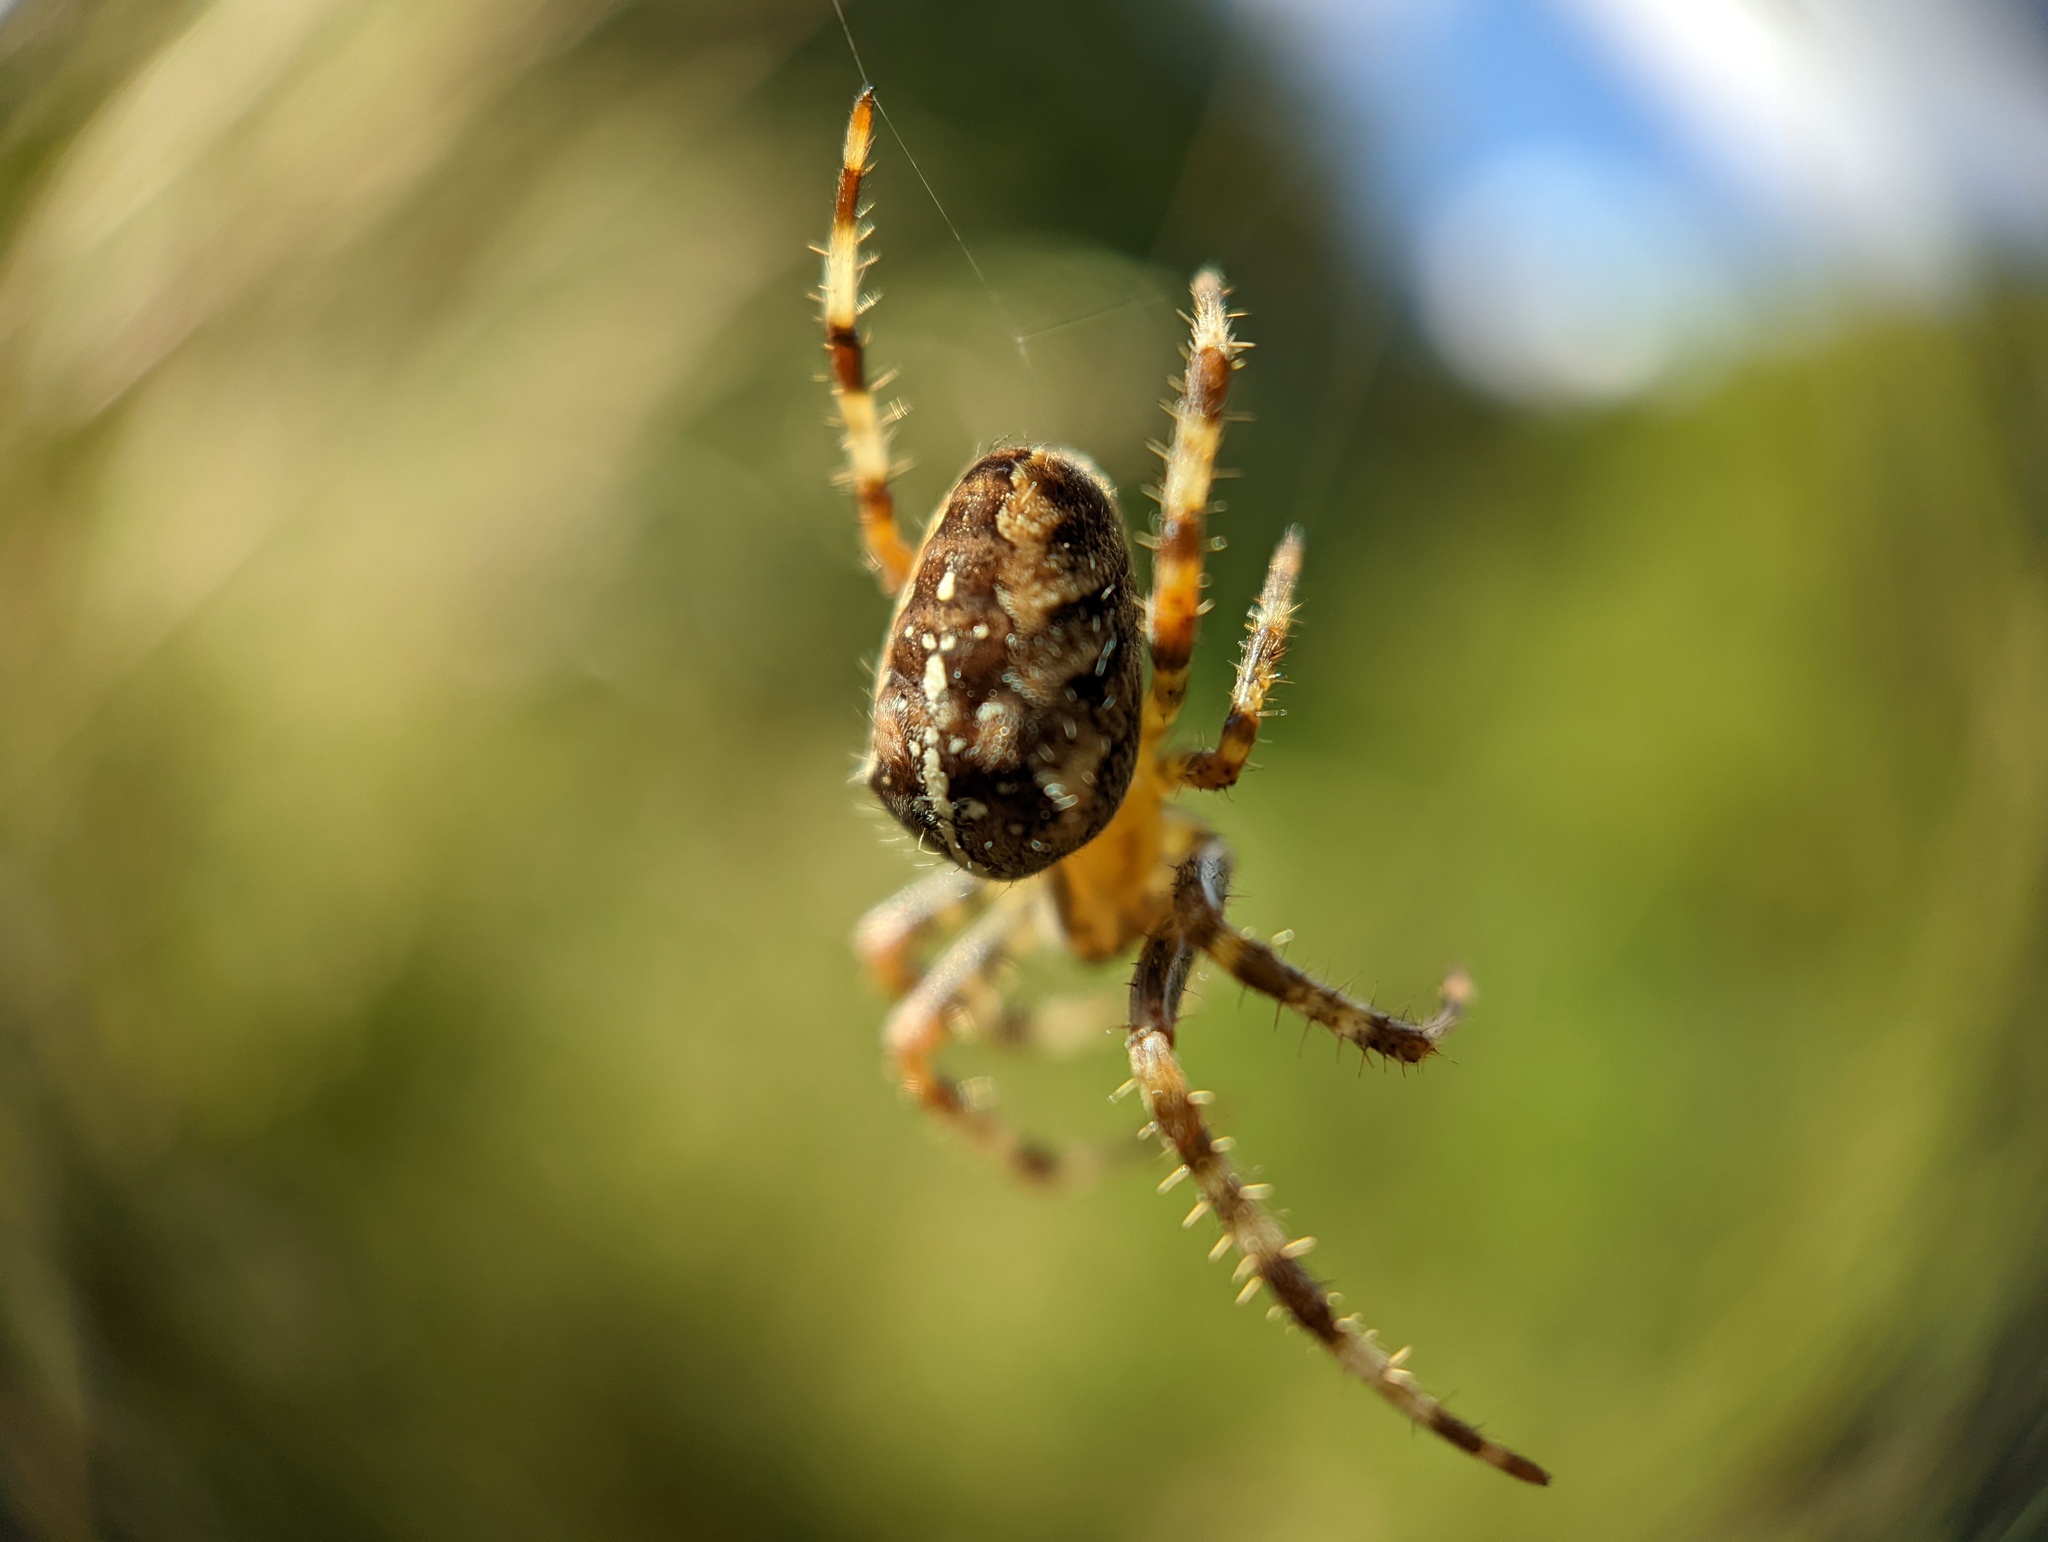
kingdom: Animalia
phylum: Arthropoda
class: Arachnida
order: Araneae
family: Araneidae
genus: Araneus
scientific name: Araneus diadematus
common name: Cross orbweaver
